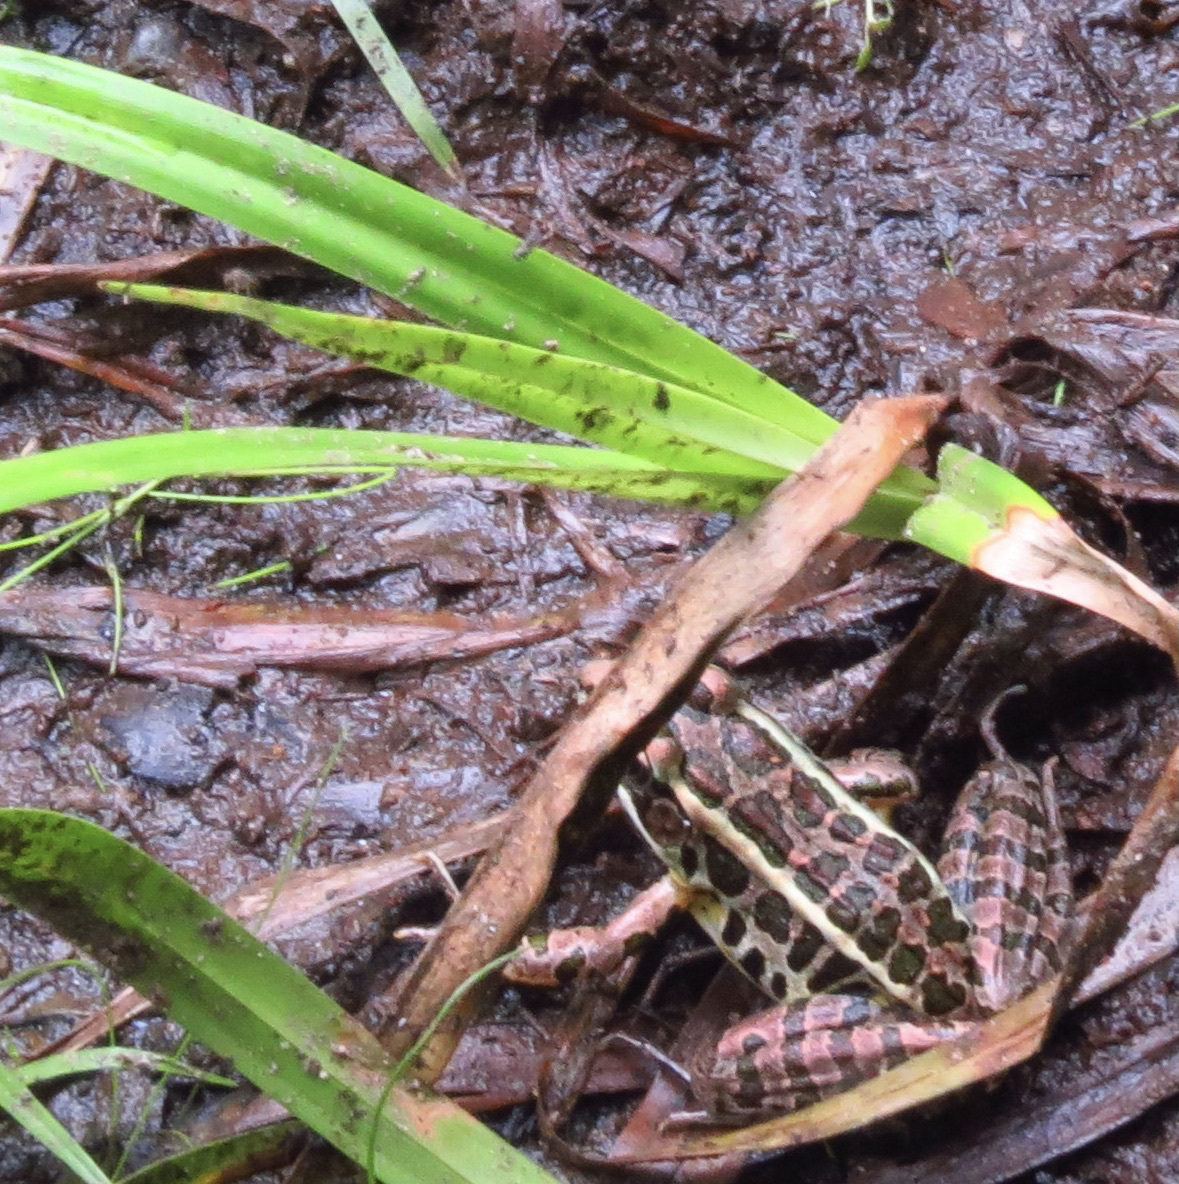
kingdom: Animalia
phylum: Chordata
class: Amphibia
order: Anura
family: Ranidae
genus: Lithobates
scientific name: Lithobates palustris
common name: Pickerel frog
